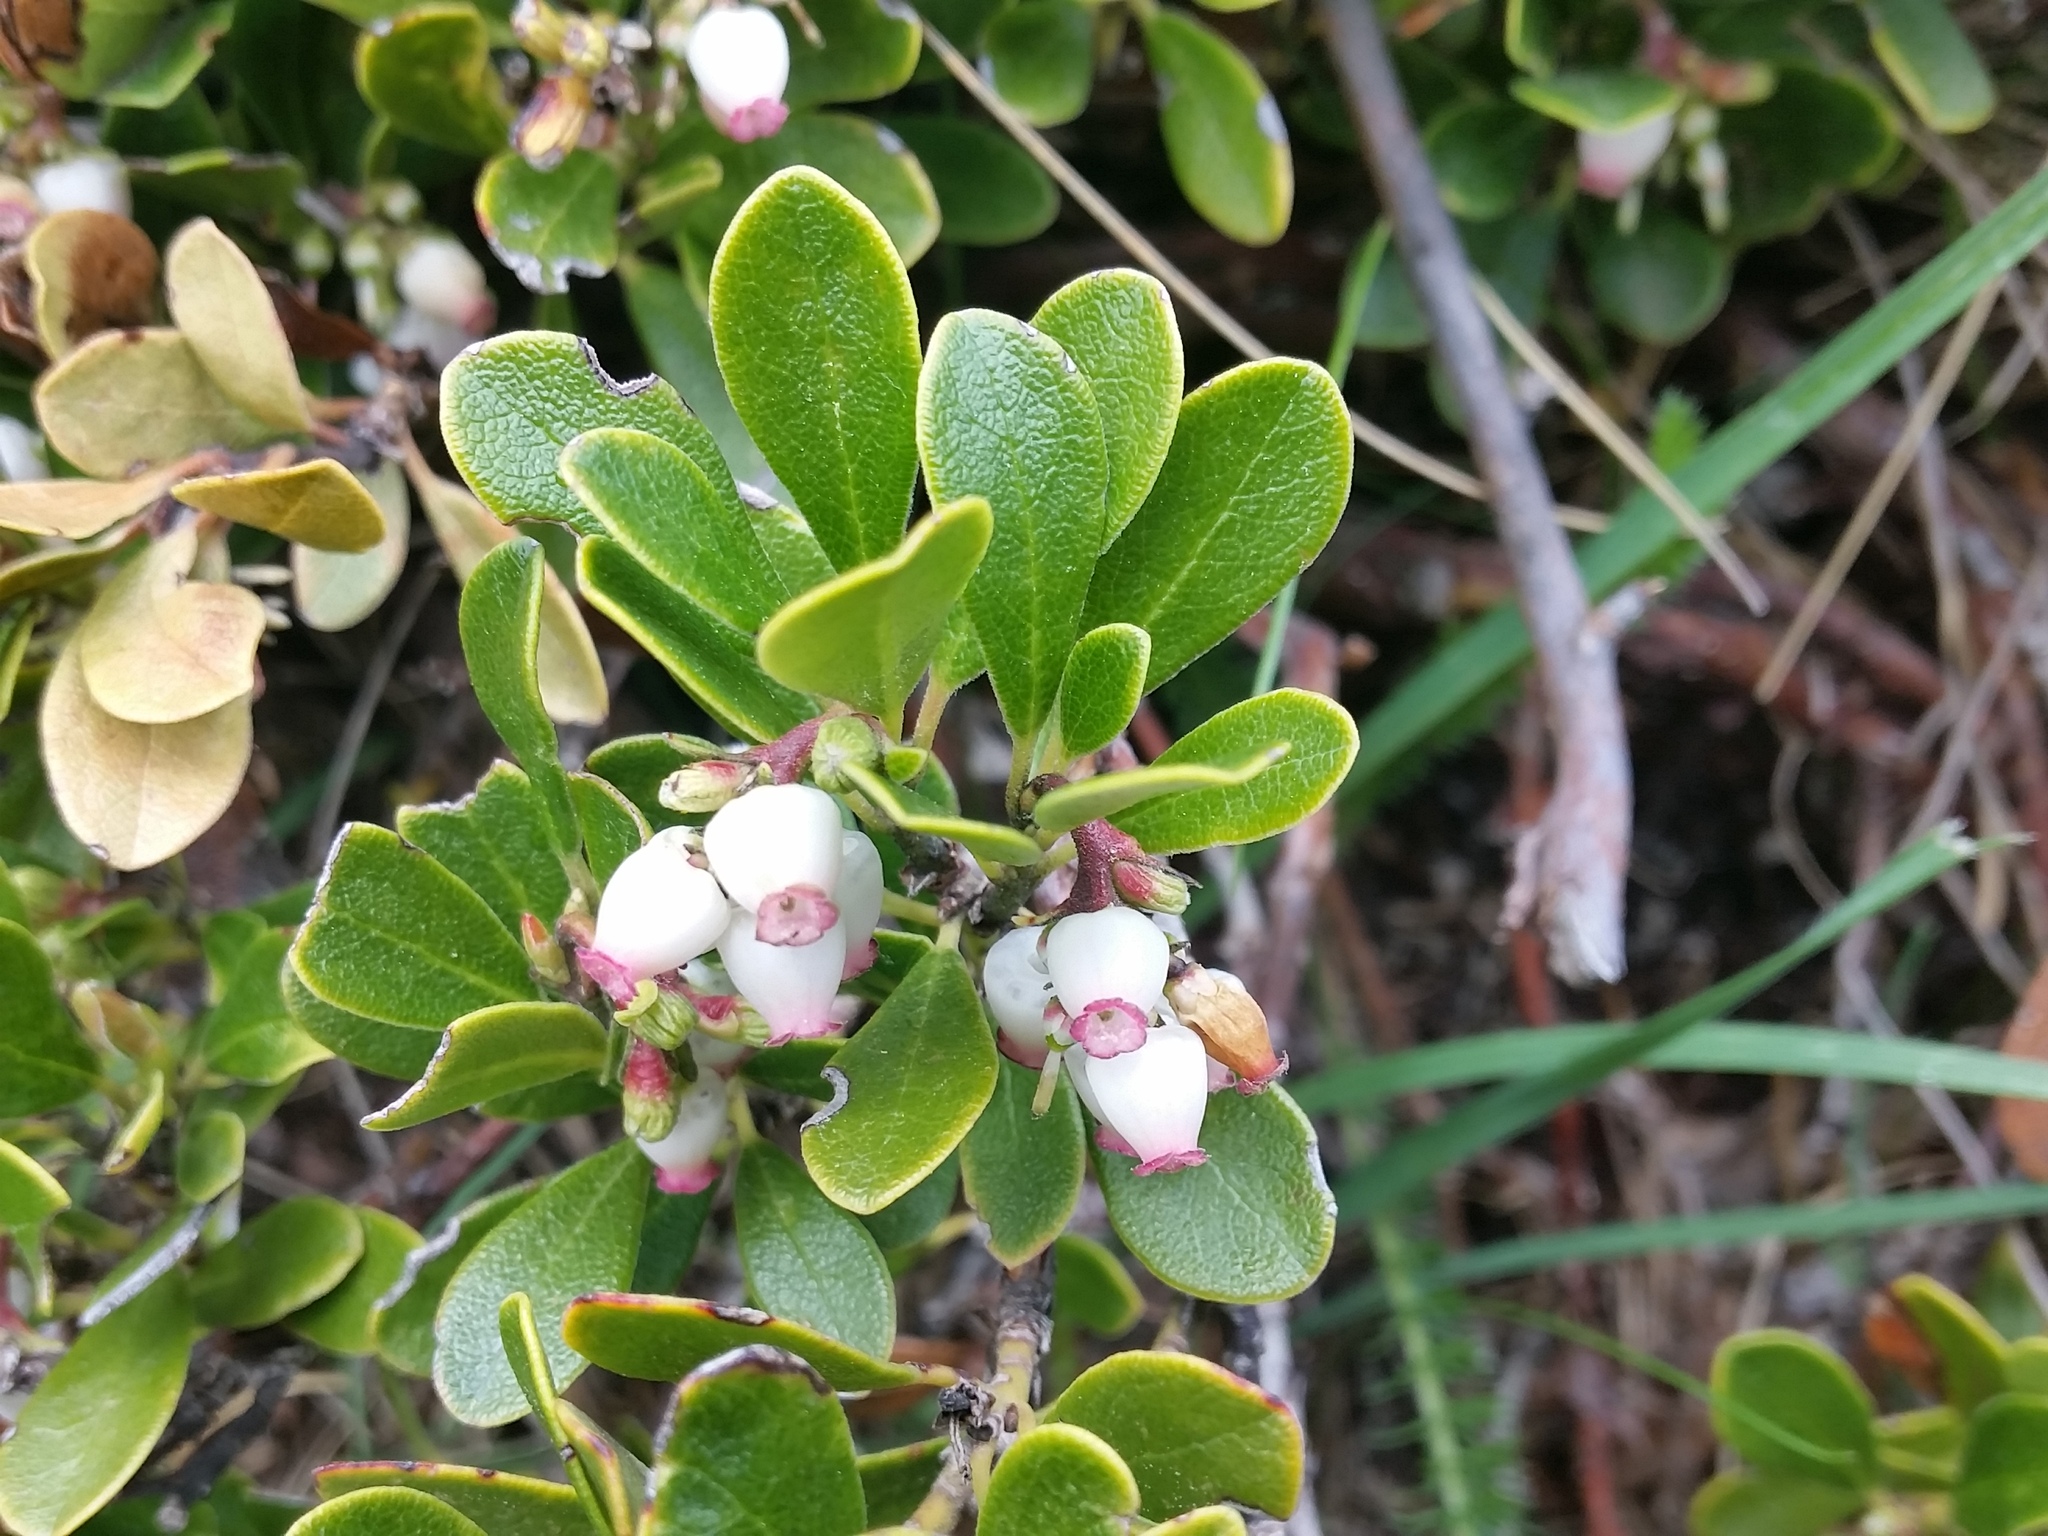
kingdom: Plantae
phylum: Tracheophyta
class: Magnoliopsida
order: Ericales
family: Ericaceae
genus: Arctostaphylos
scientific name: Arctostaphylos uva-ursi
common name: Bearberry
